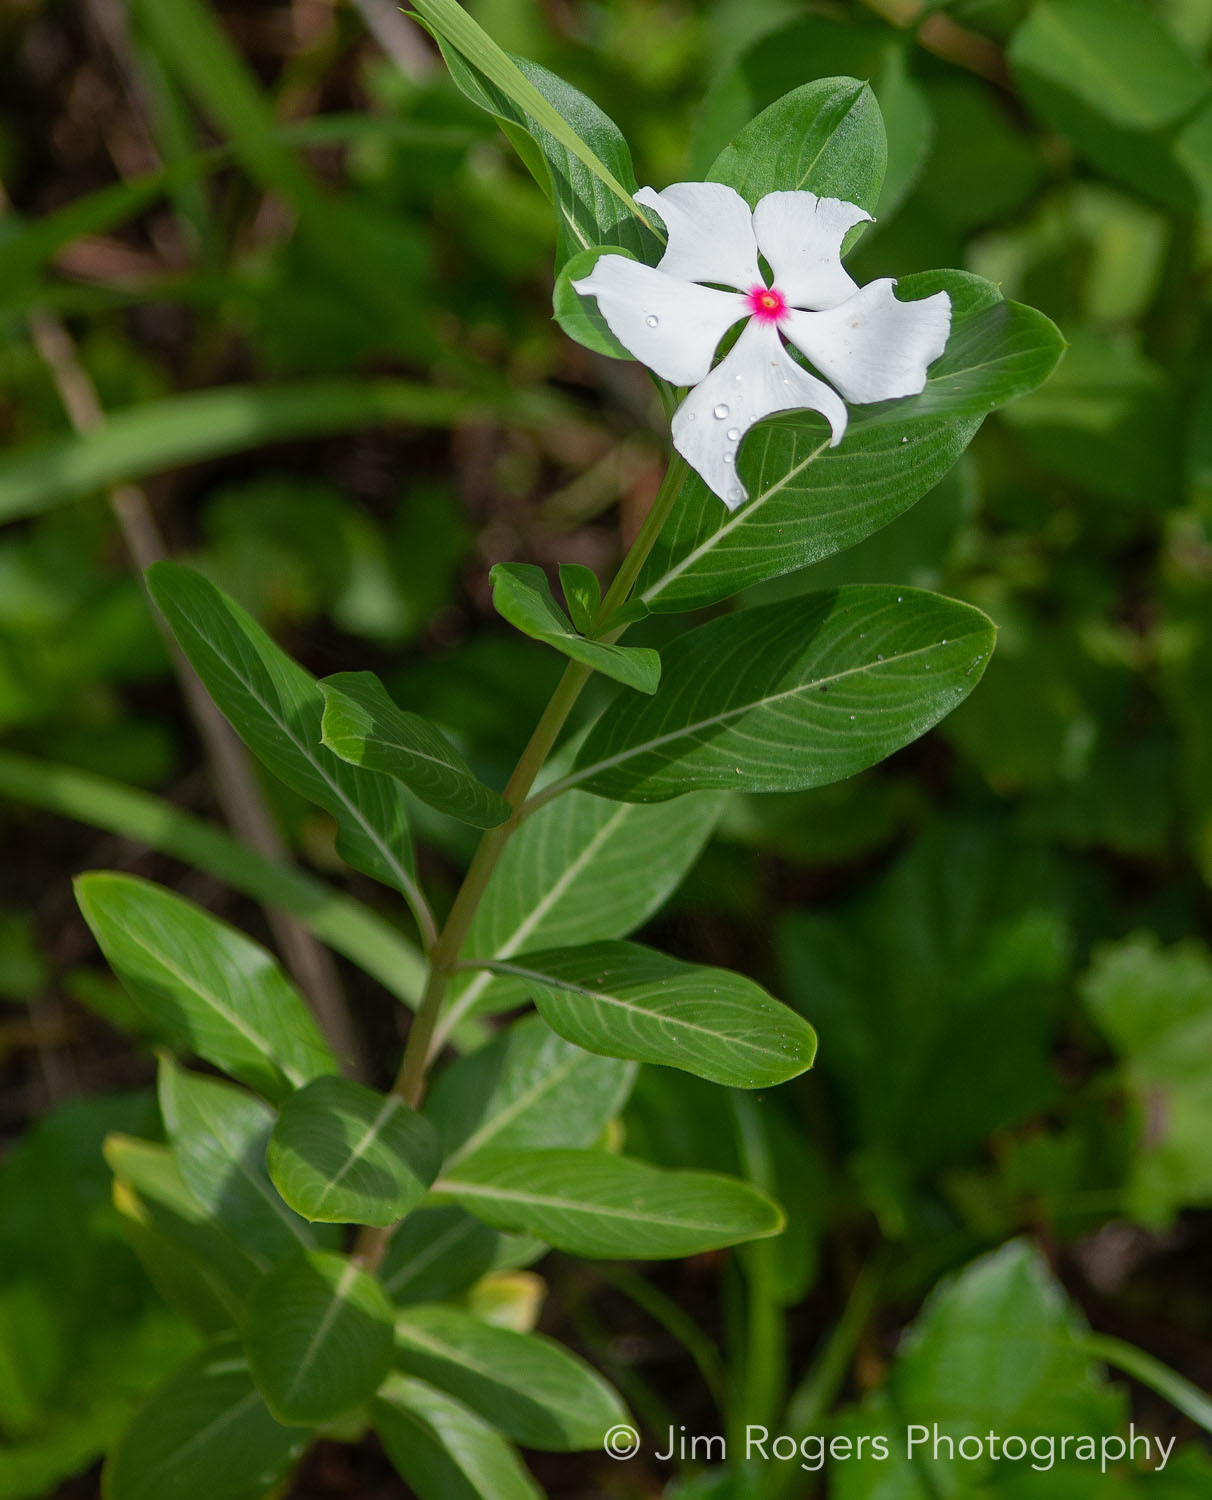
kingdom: Plantae
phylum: Tracheophyta
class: Magnoliopsida
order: Gentianales
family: Apocynaceae
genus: Catharanthus
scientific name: Catharanthus roseus
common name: Madagascar periwinkle
